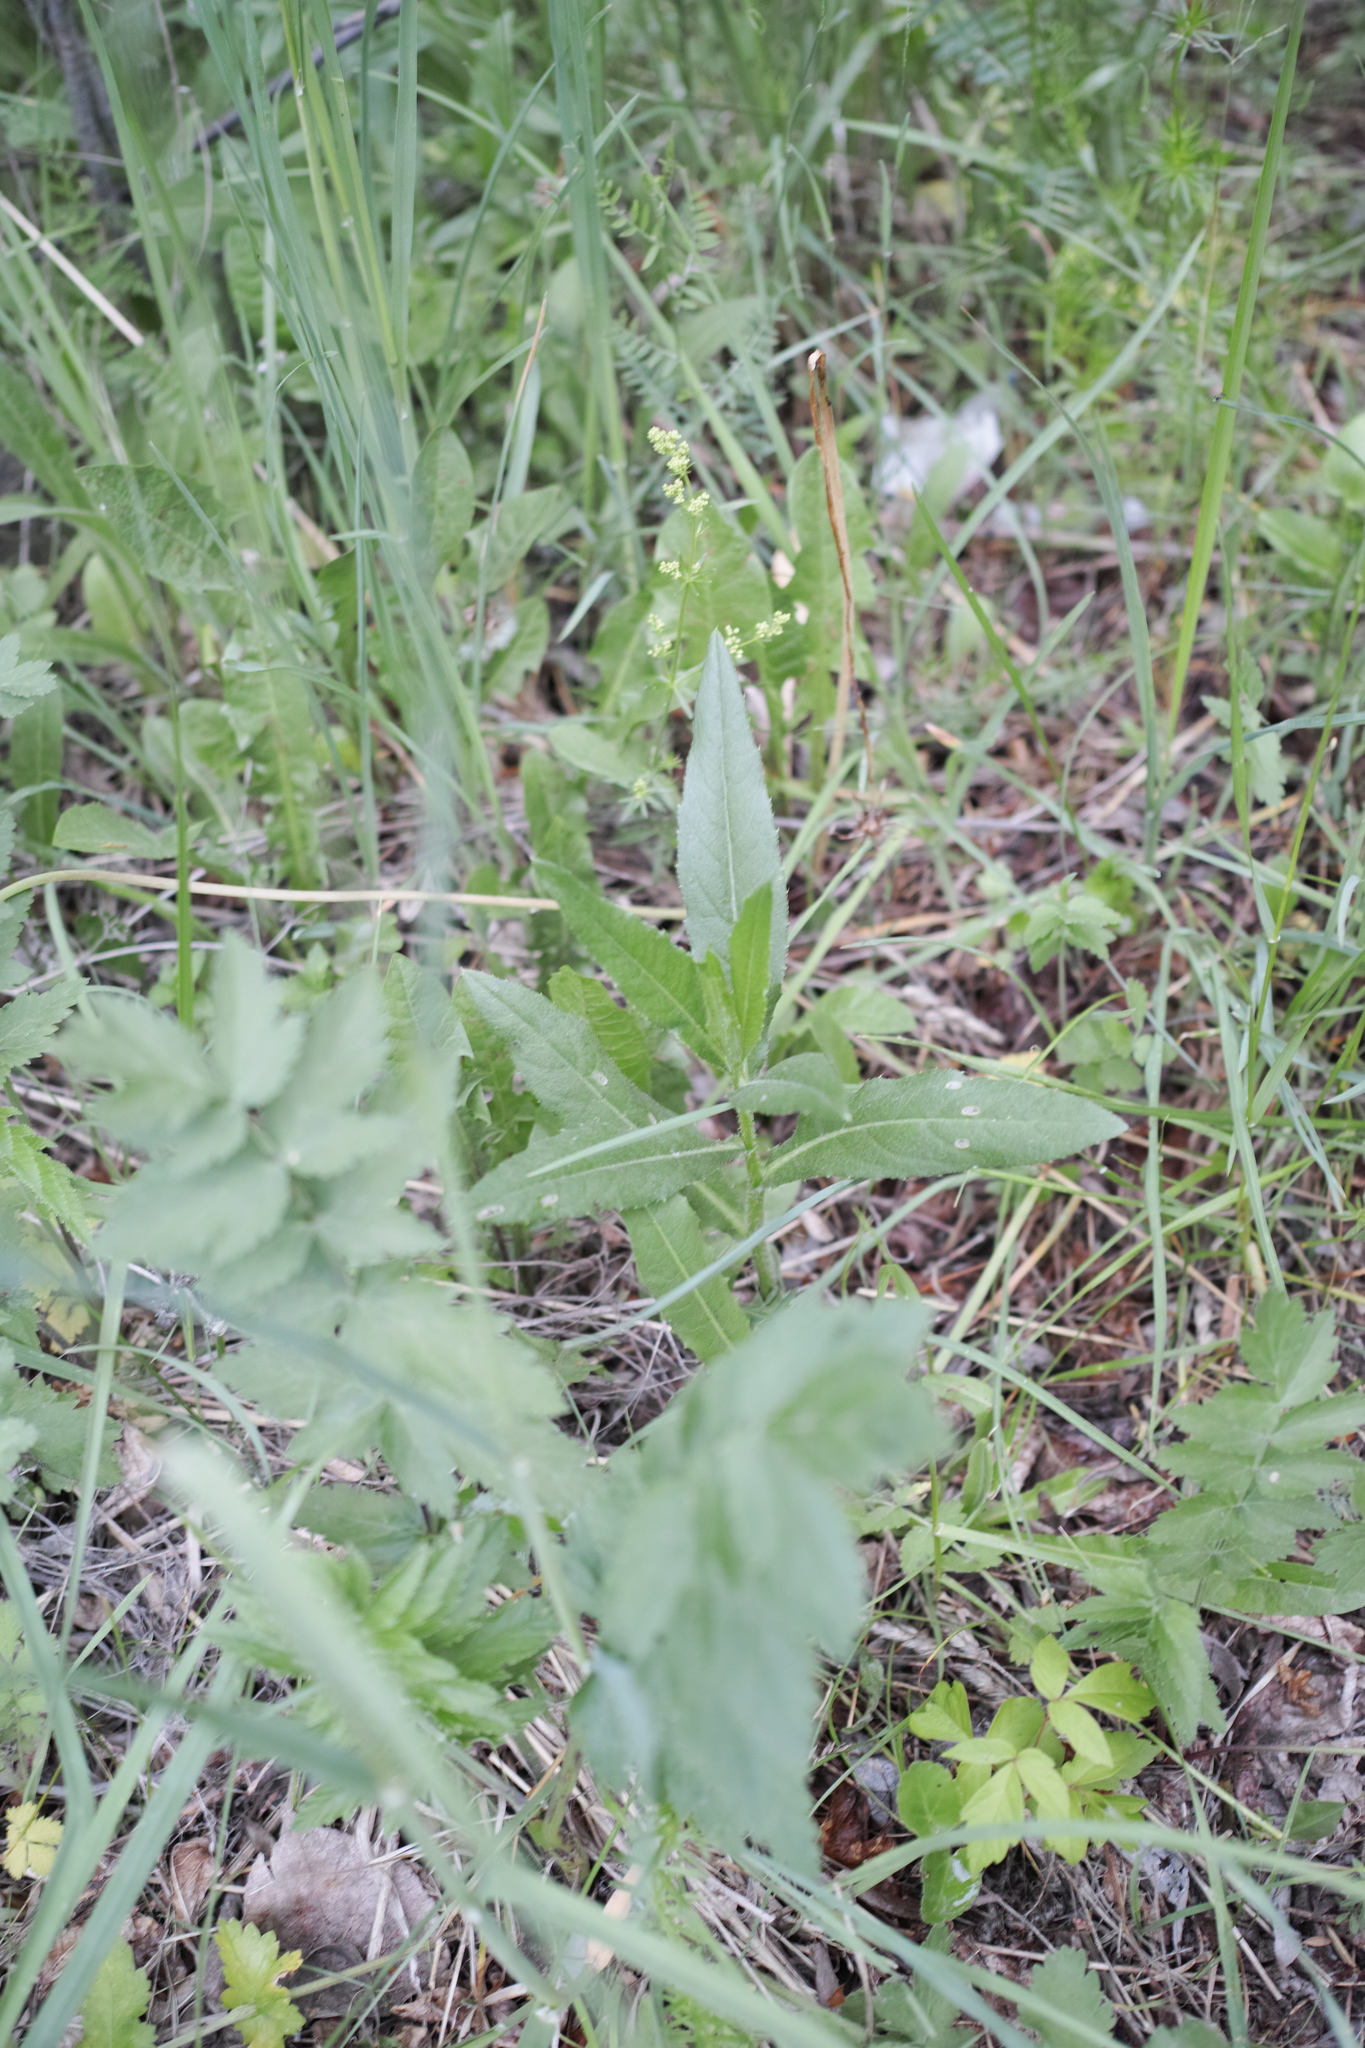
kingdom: Plantae
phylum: Tracheophyta
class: Magnoliopsida
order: Asterales
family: Asteraceae
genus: Cirsium
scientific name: Cirsium arvense
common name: Creeping thistle
